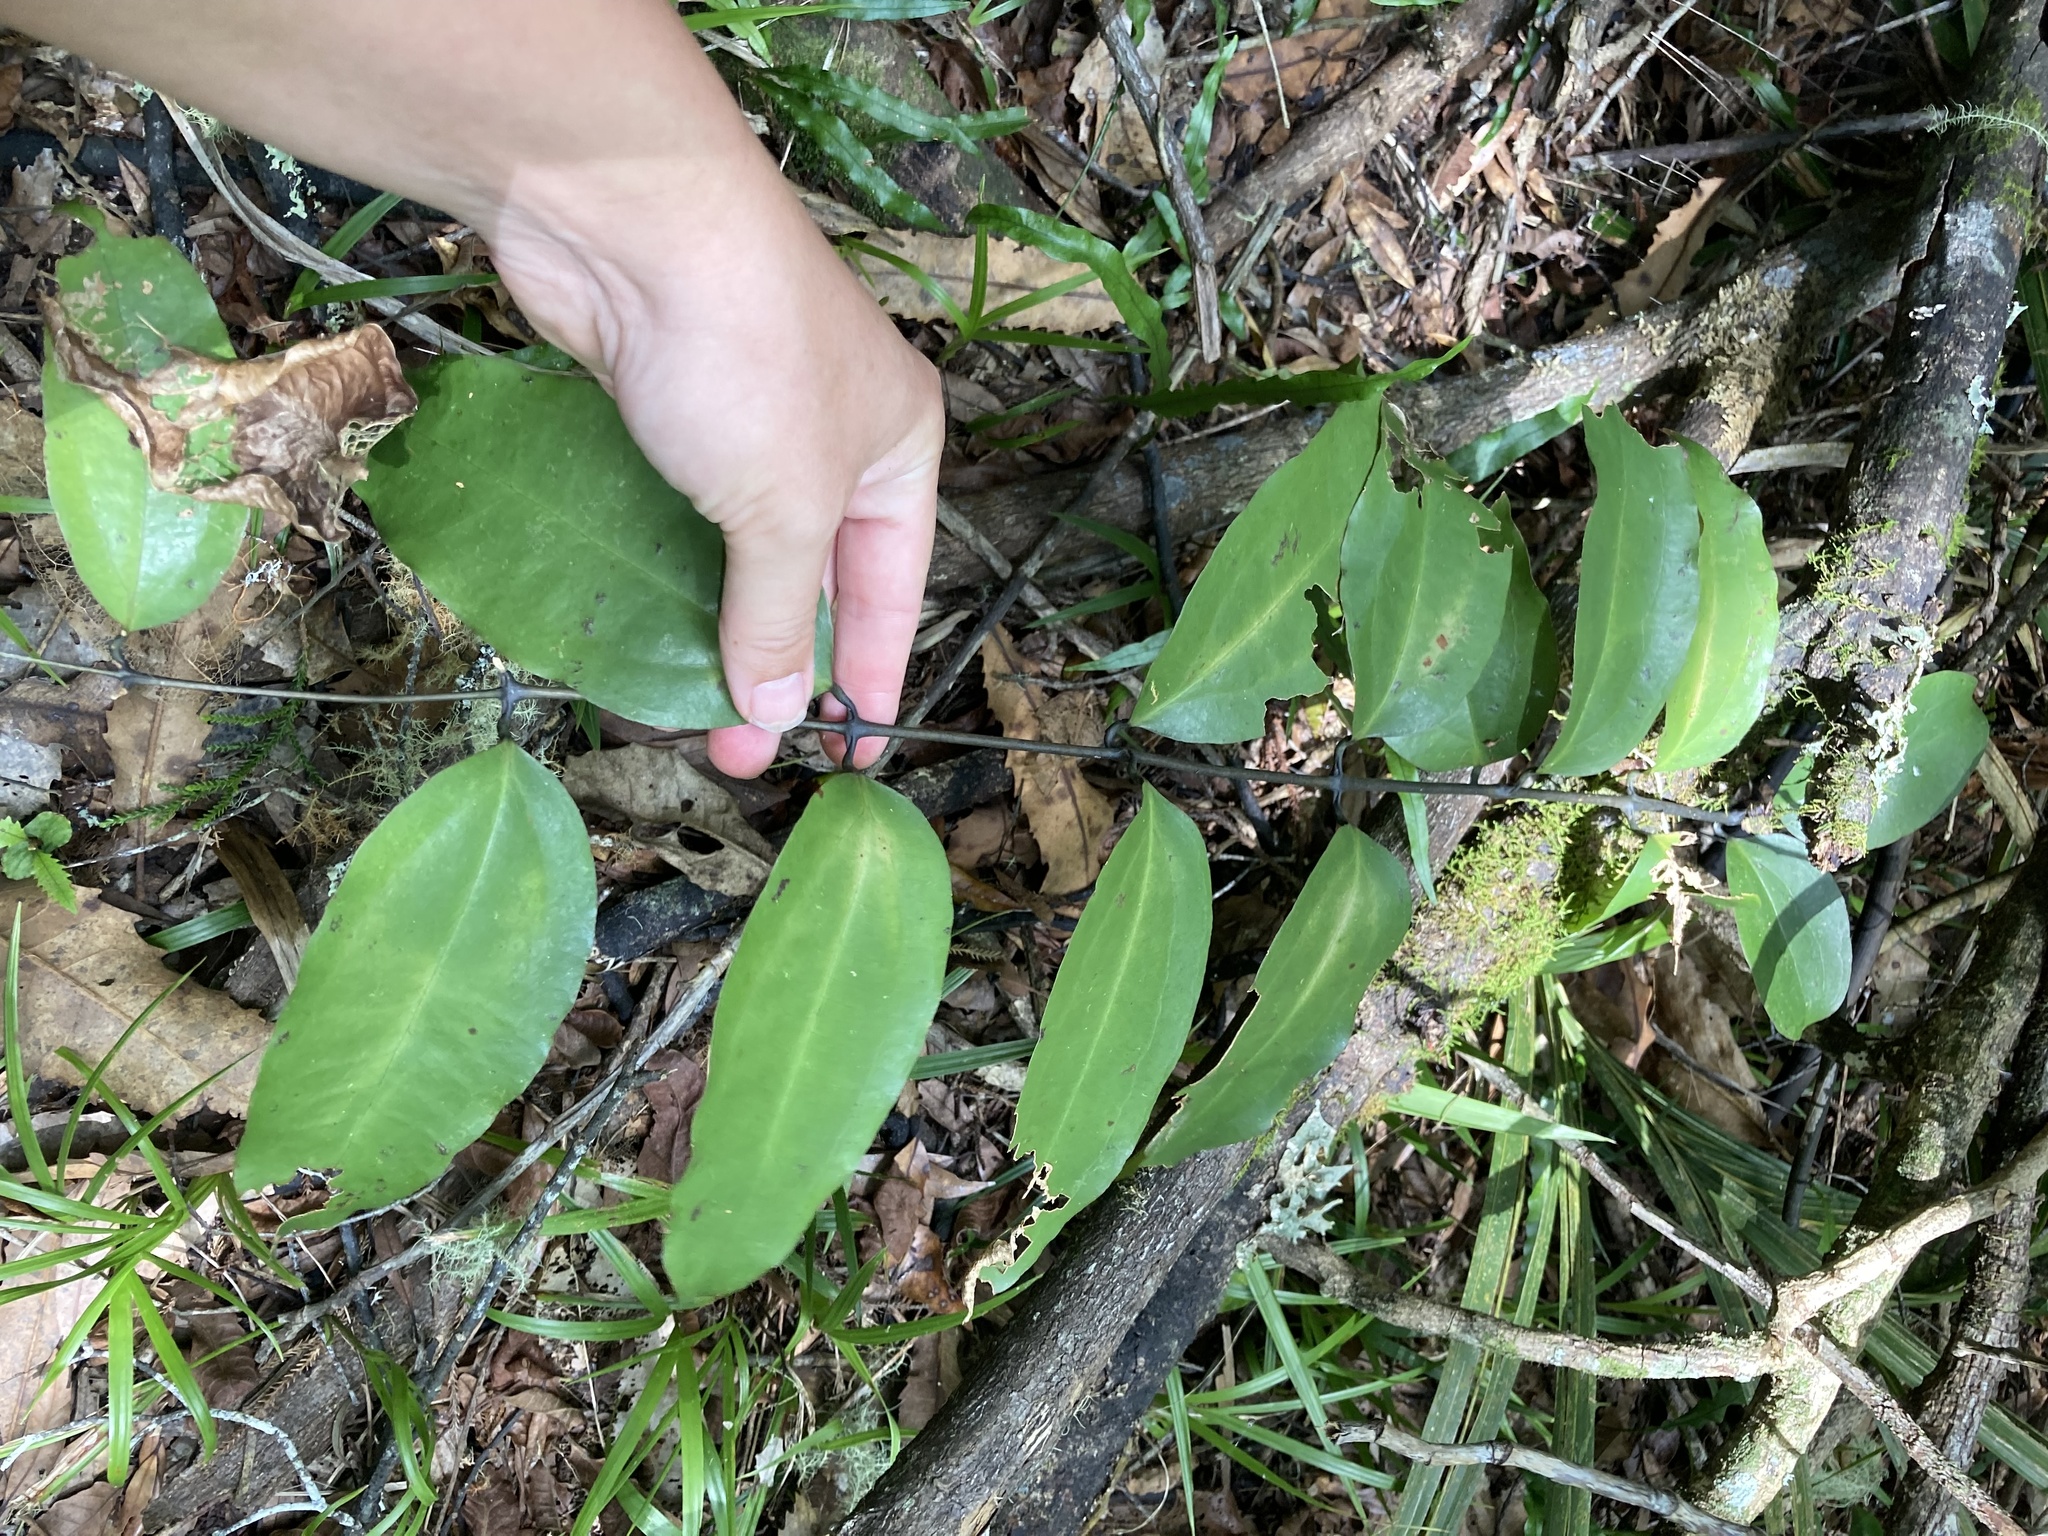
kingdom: Plantae
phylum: Tracheophyta
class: Liliopsida
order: Liliales
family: Ripogonaceae
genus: Ripogonum
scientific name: Ripogonum scandens
